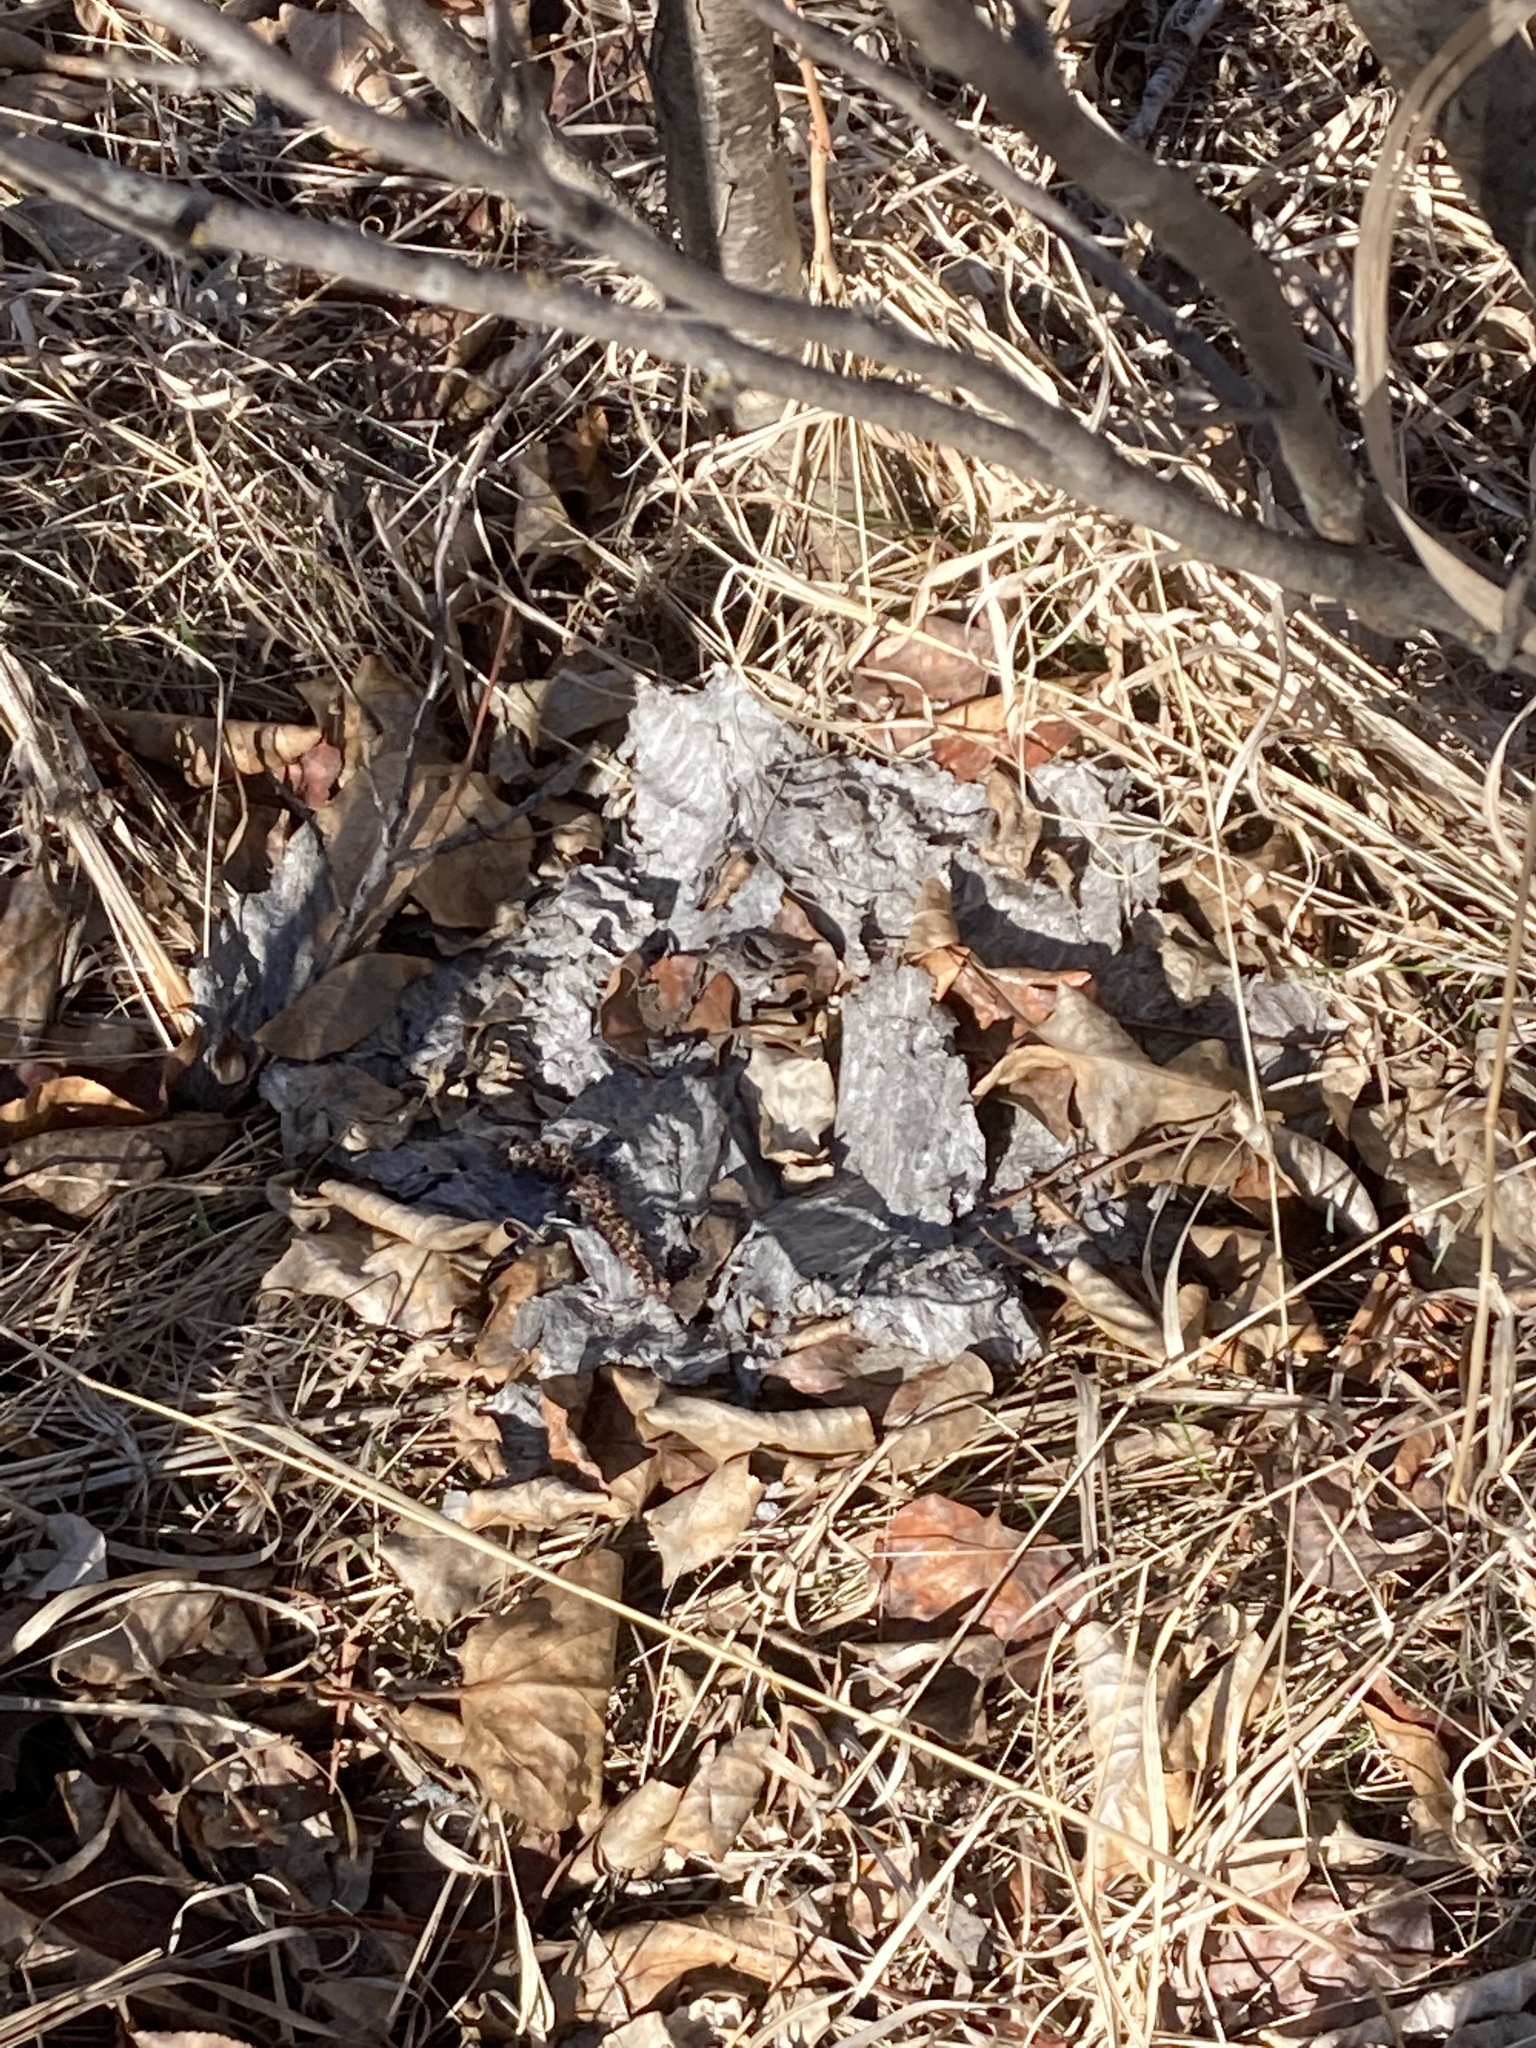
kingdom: Animalia
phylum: Arthropoda
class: Insecta
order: Hymenoptera
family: Vespidae
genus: Dolichovespula
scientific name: Dolichovespula
